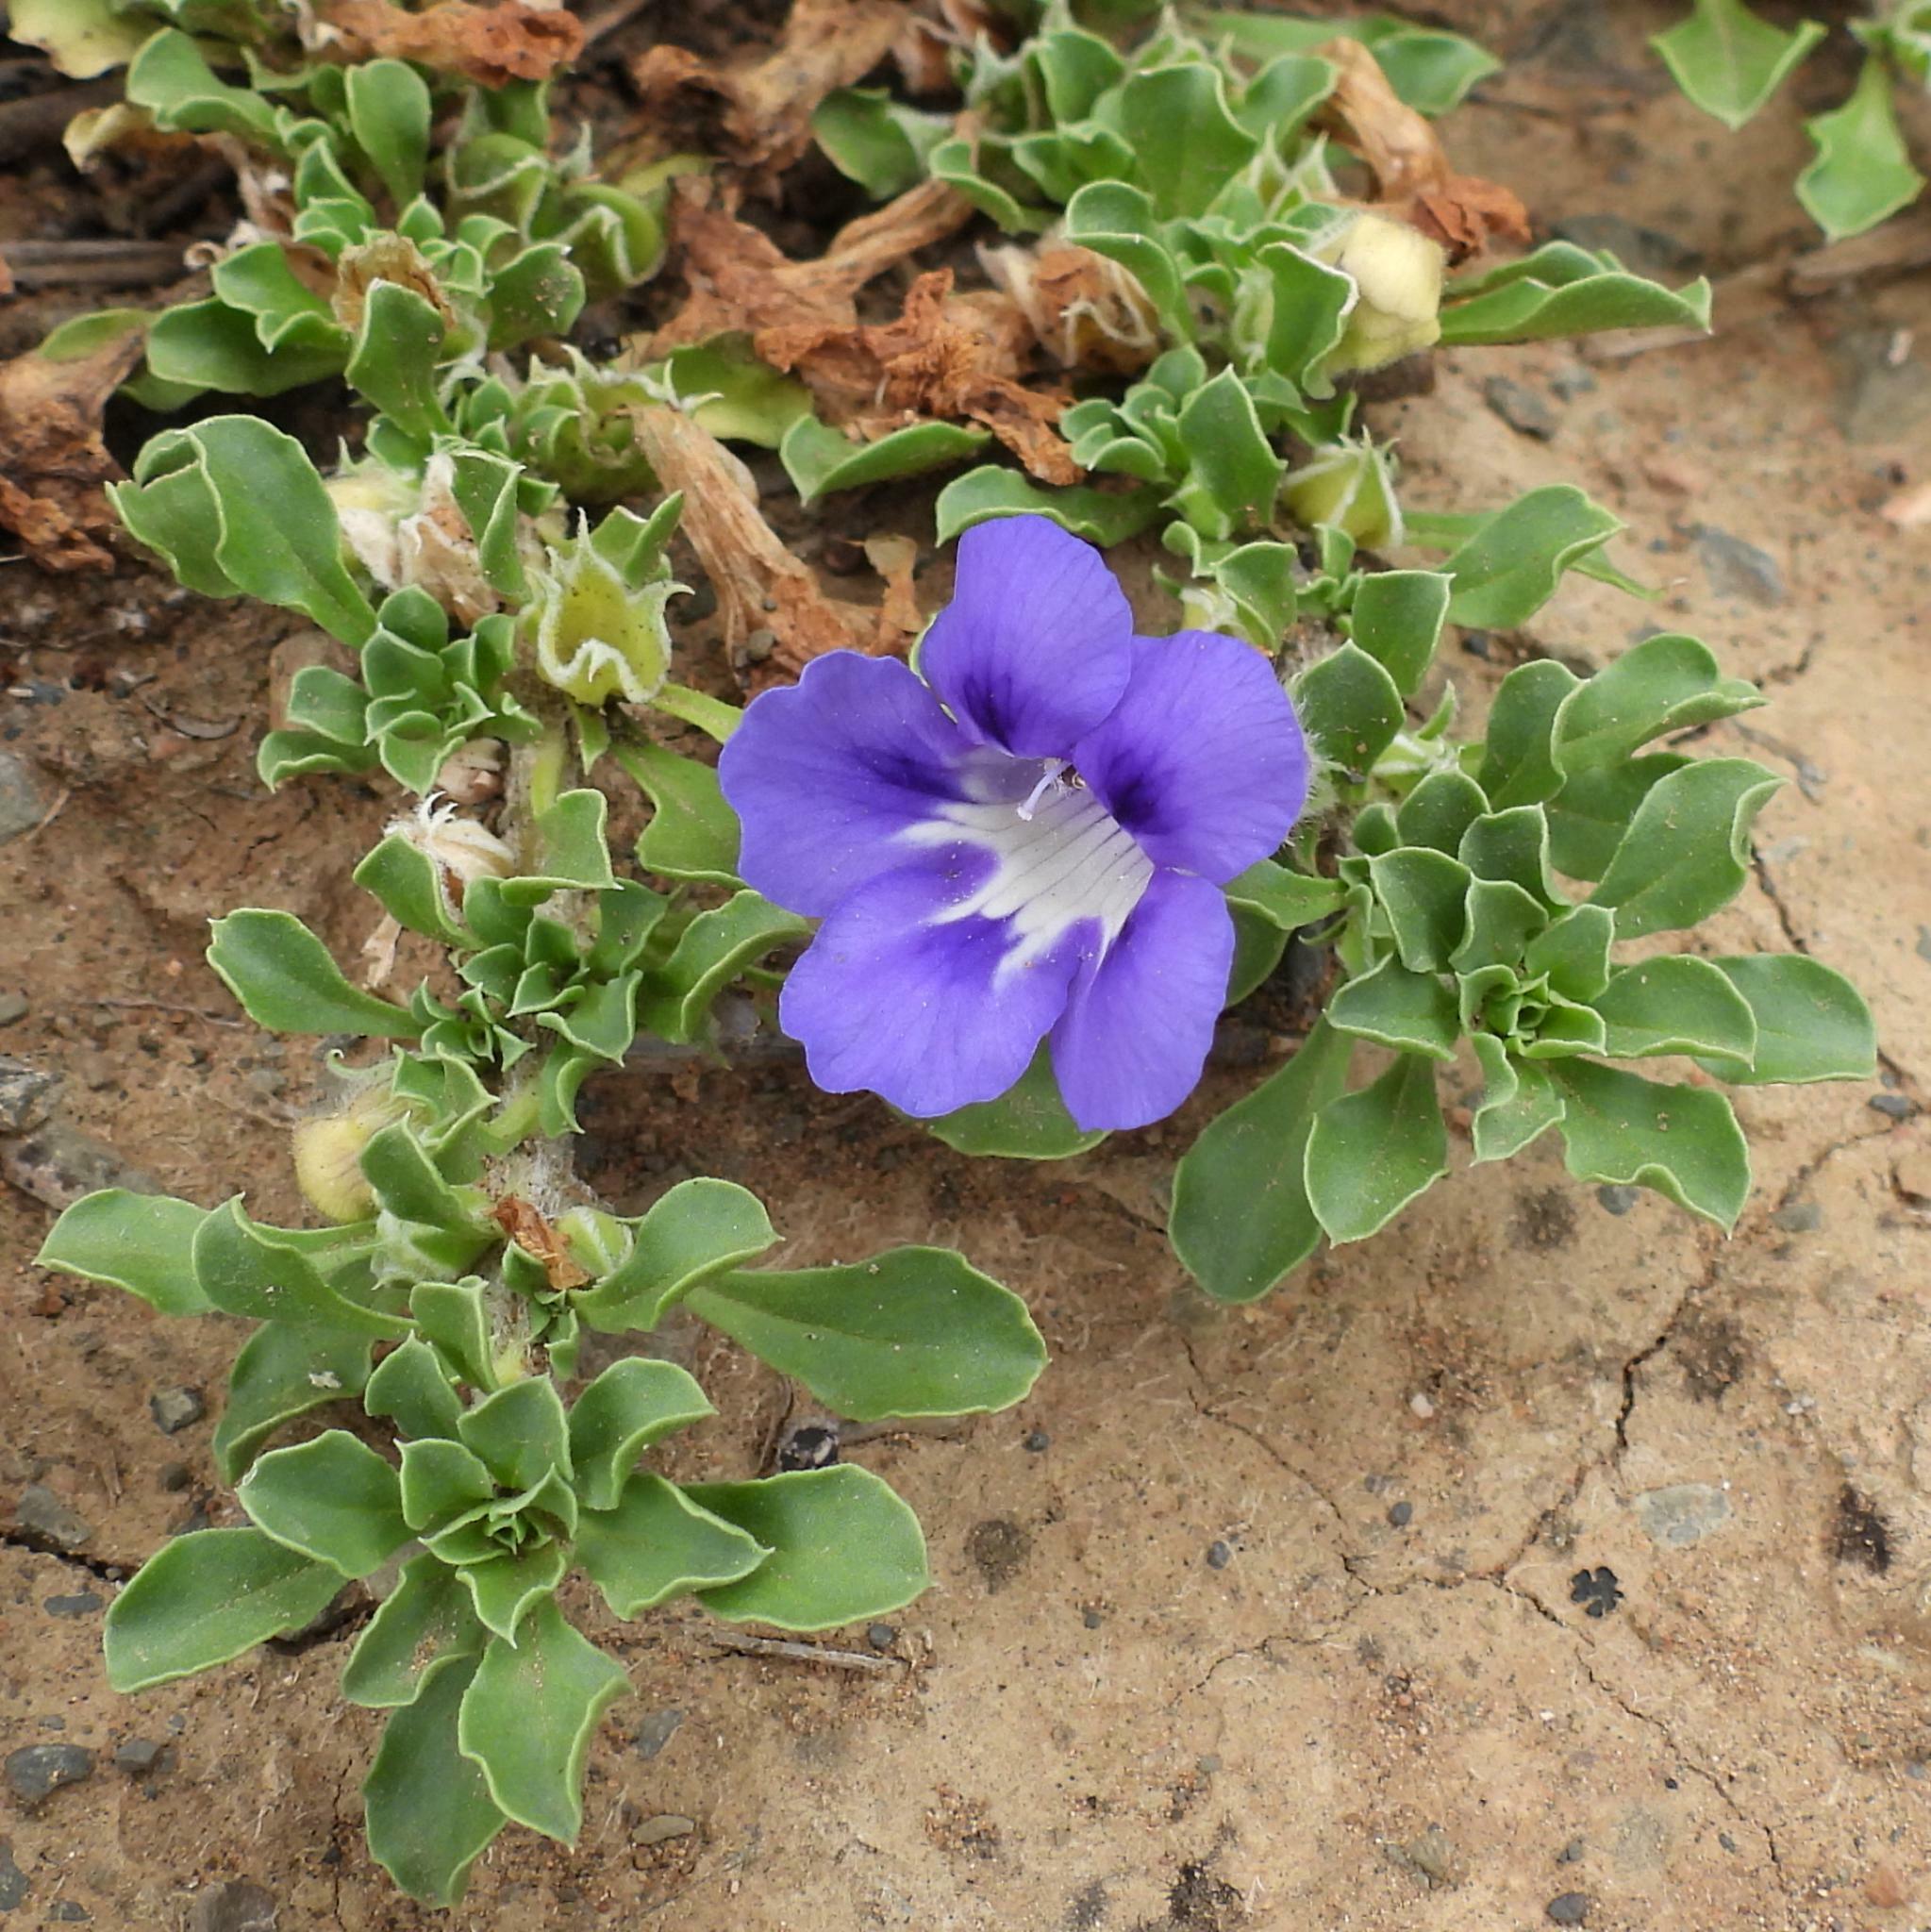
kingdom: Plantae
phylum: Tracheophyta
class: Magnoliopsida
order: Lamiales
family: Scrophulariaceae
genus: Aptosimum
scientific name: Aptosimum procumbens
